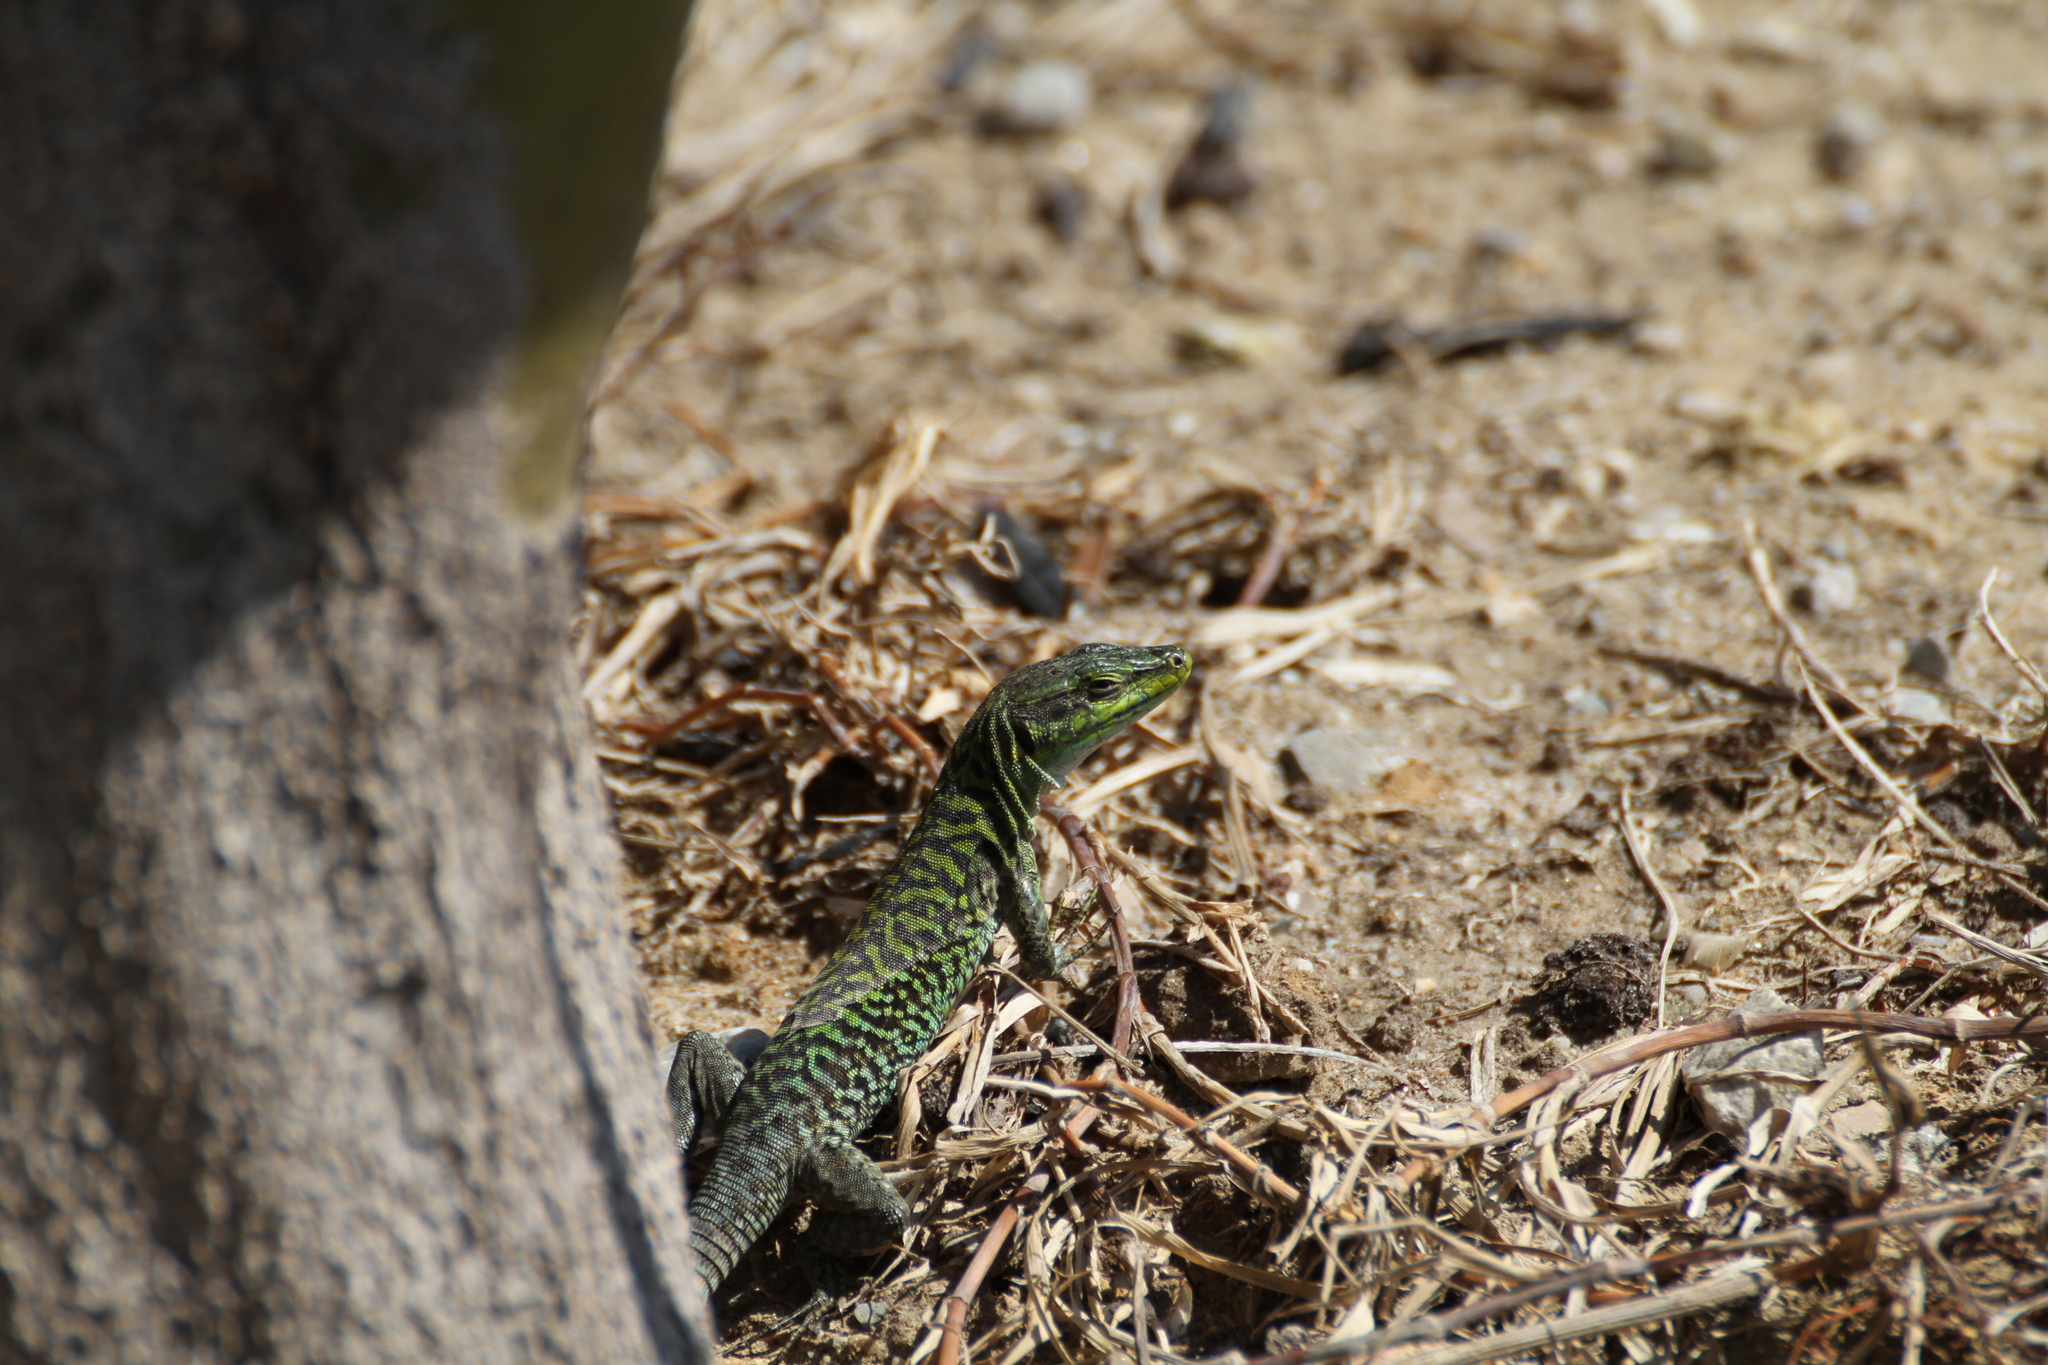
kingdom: Animalia
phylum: Chordata
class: Squamata
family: Lacertidae
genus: Podarcis
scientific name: Podarcis siculus
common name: Italian wall lizard
